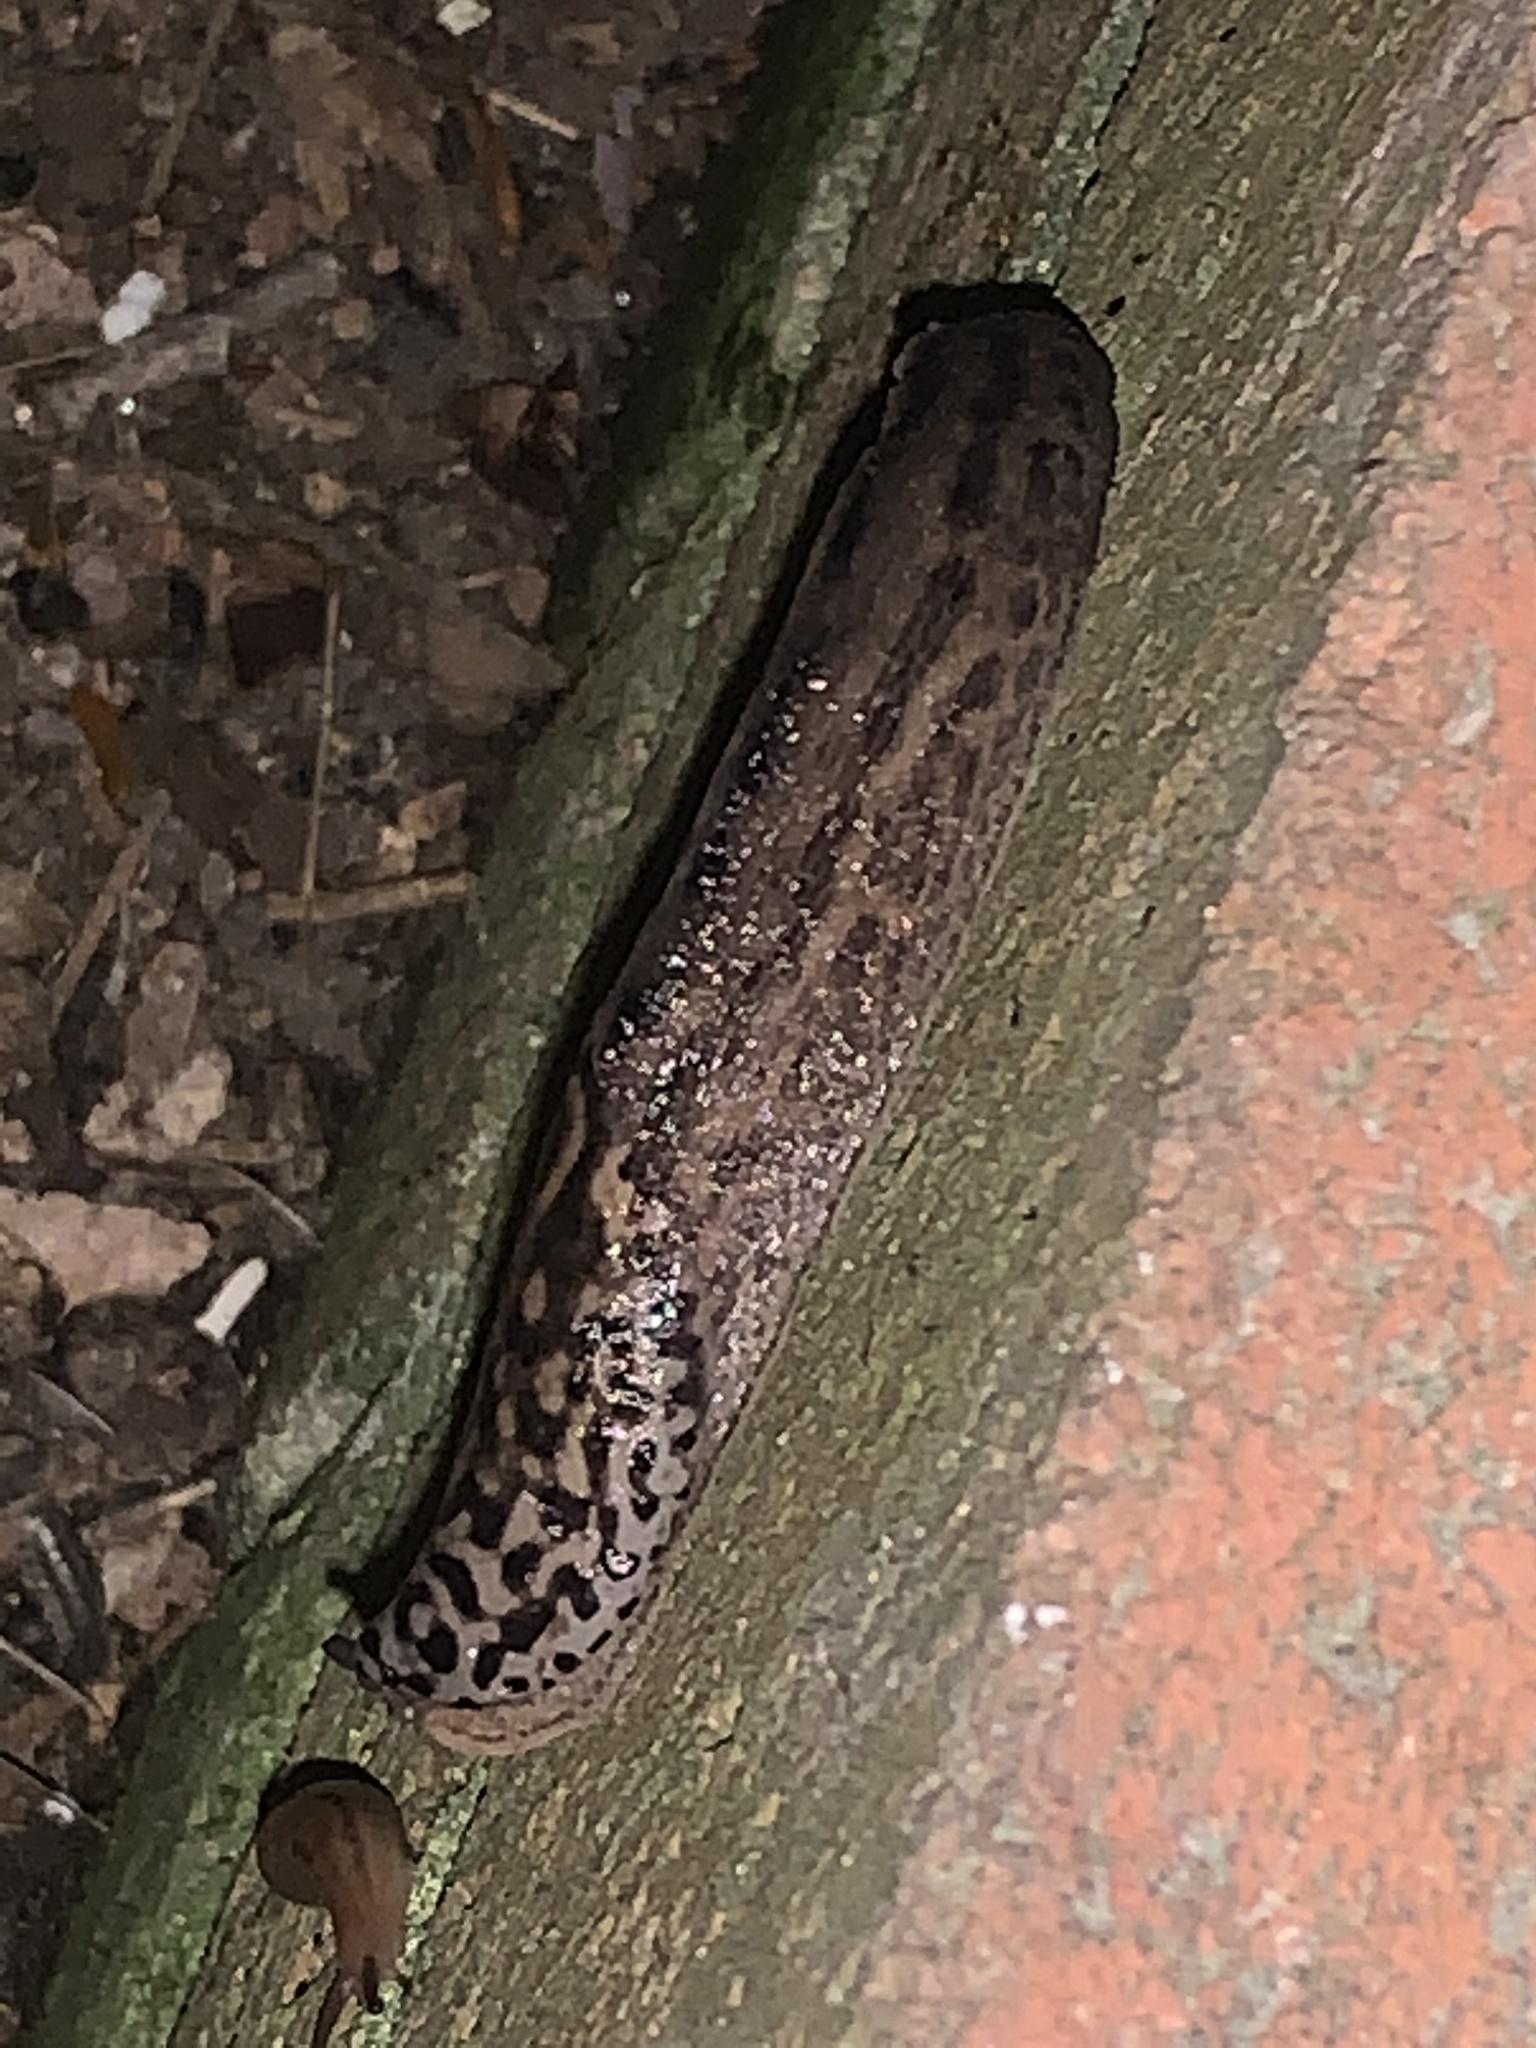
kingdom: Animalia
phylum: Mollusca
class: Gastropoda
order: Stylommatophora
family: Limacidae
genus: Limax
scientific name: Limax maximus
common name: Great grey slug
